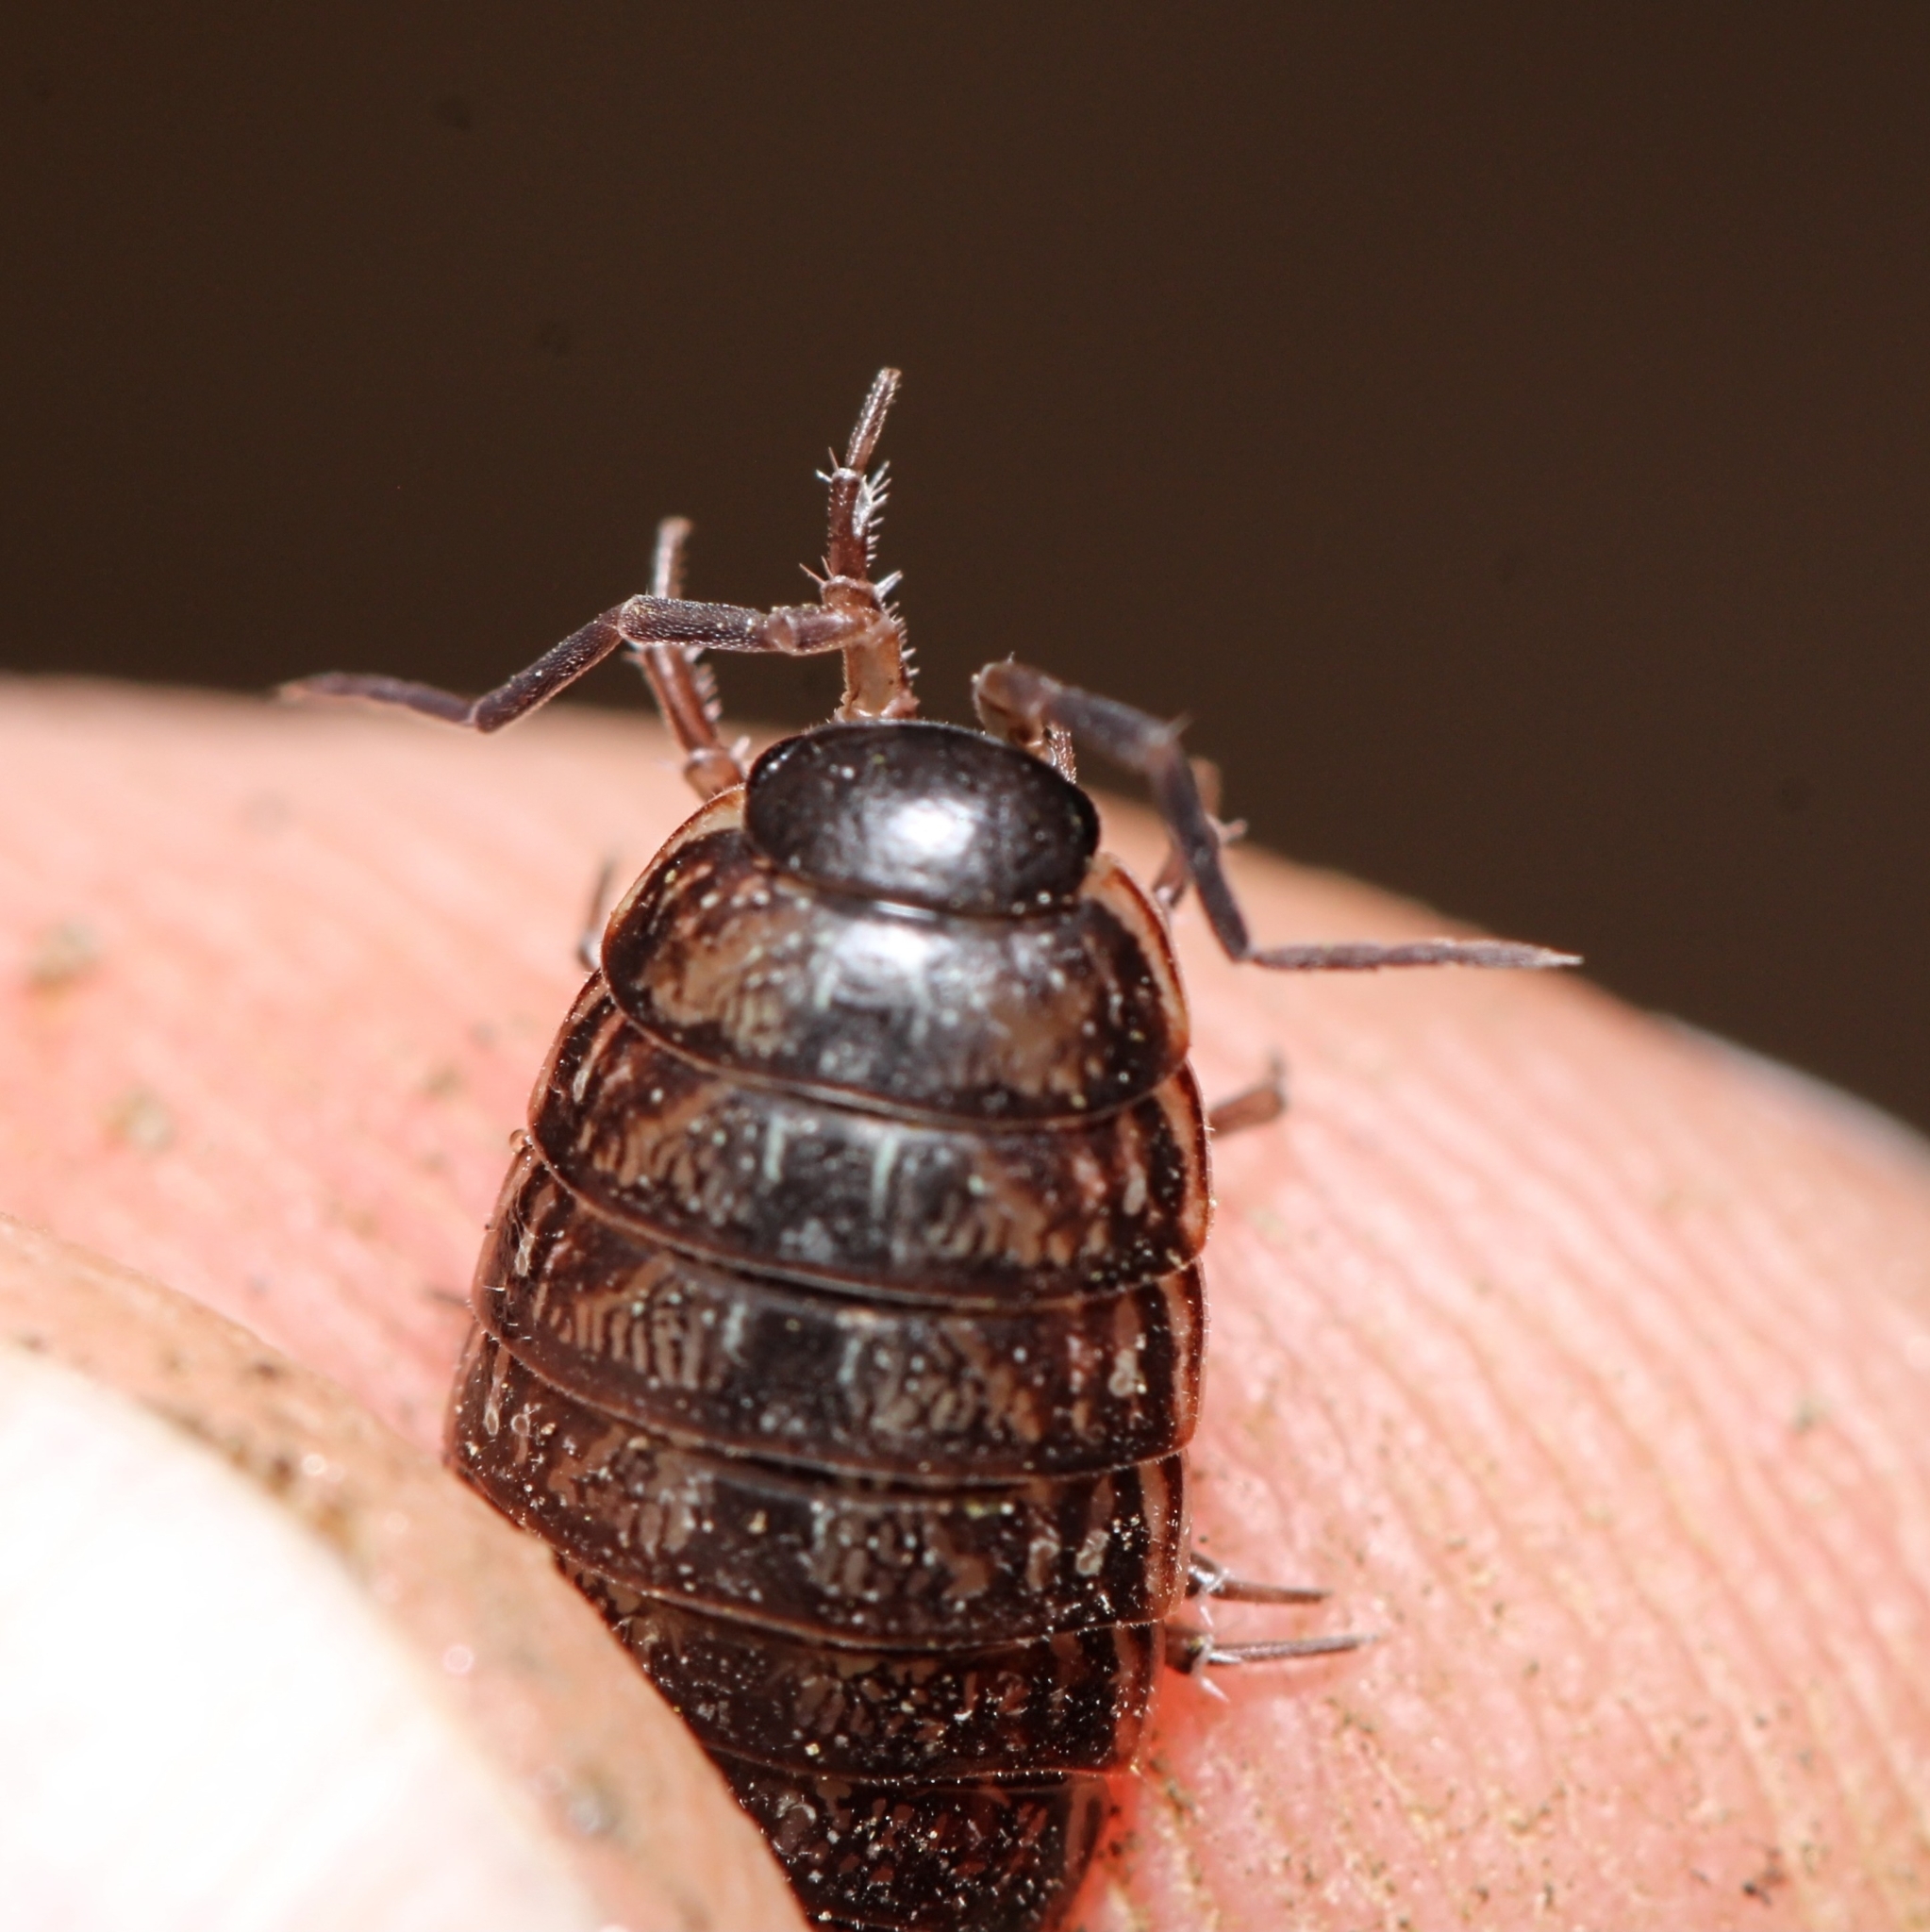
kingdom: Animalia
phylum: Arthropoda
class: Malacostraca
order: Isopoda
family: Philosciidae
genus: Philoscia
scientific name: Philoscia muscorum
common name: Common striped woodlouse
